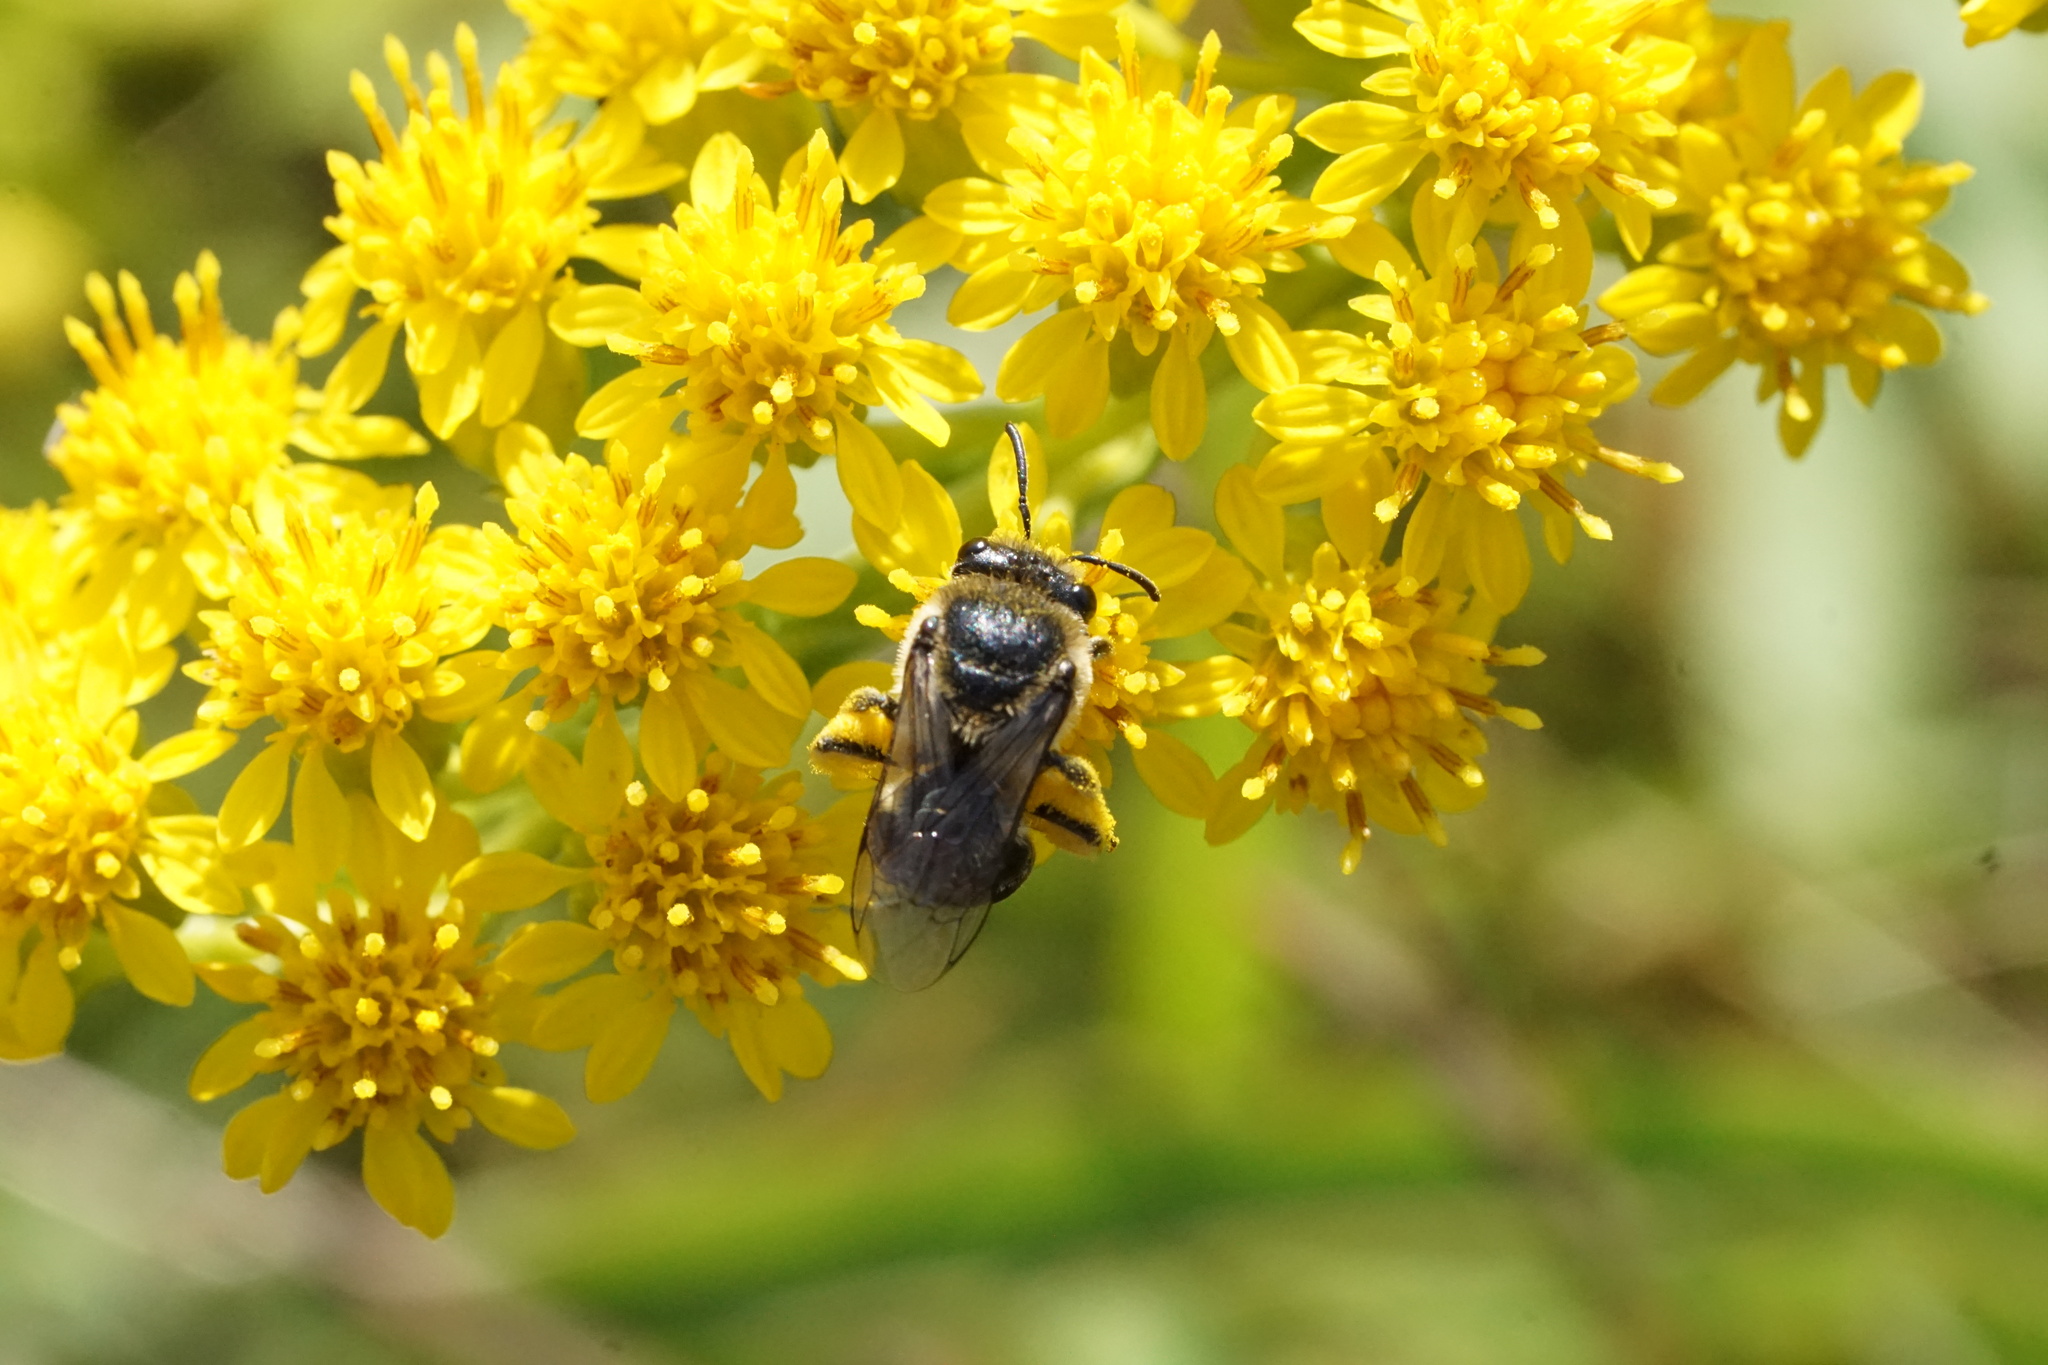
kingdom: Animalia
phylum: Arthropoda
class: Insecta
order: Hymenoptera
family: Colletidae
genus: Colletes
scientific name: Colletes simulans
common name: Spine-shouldered cellophane bee
